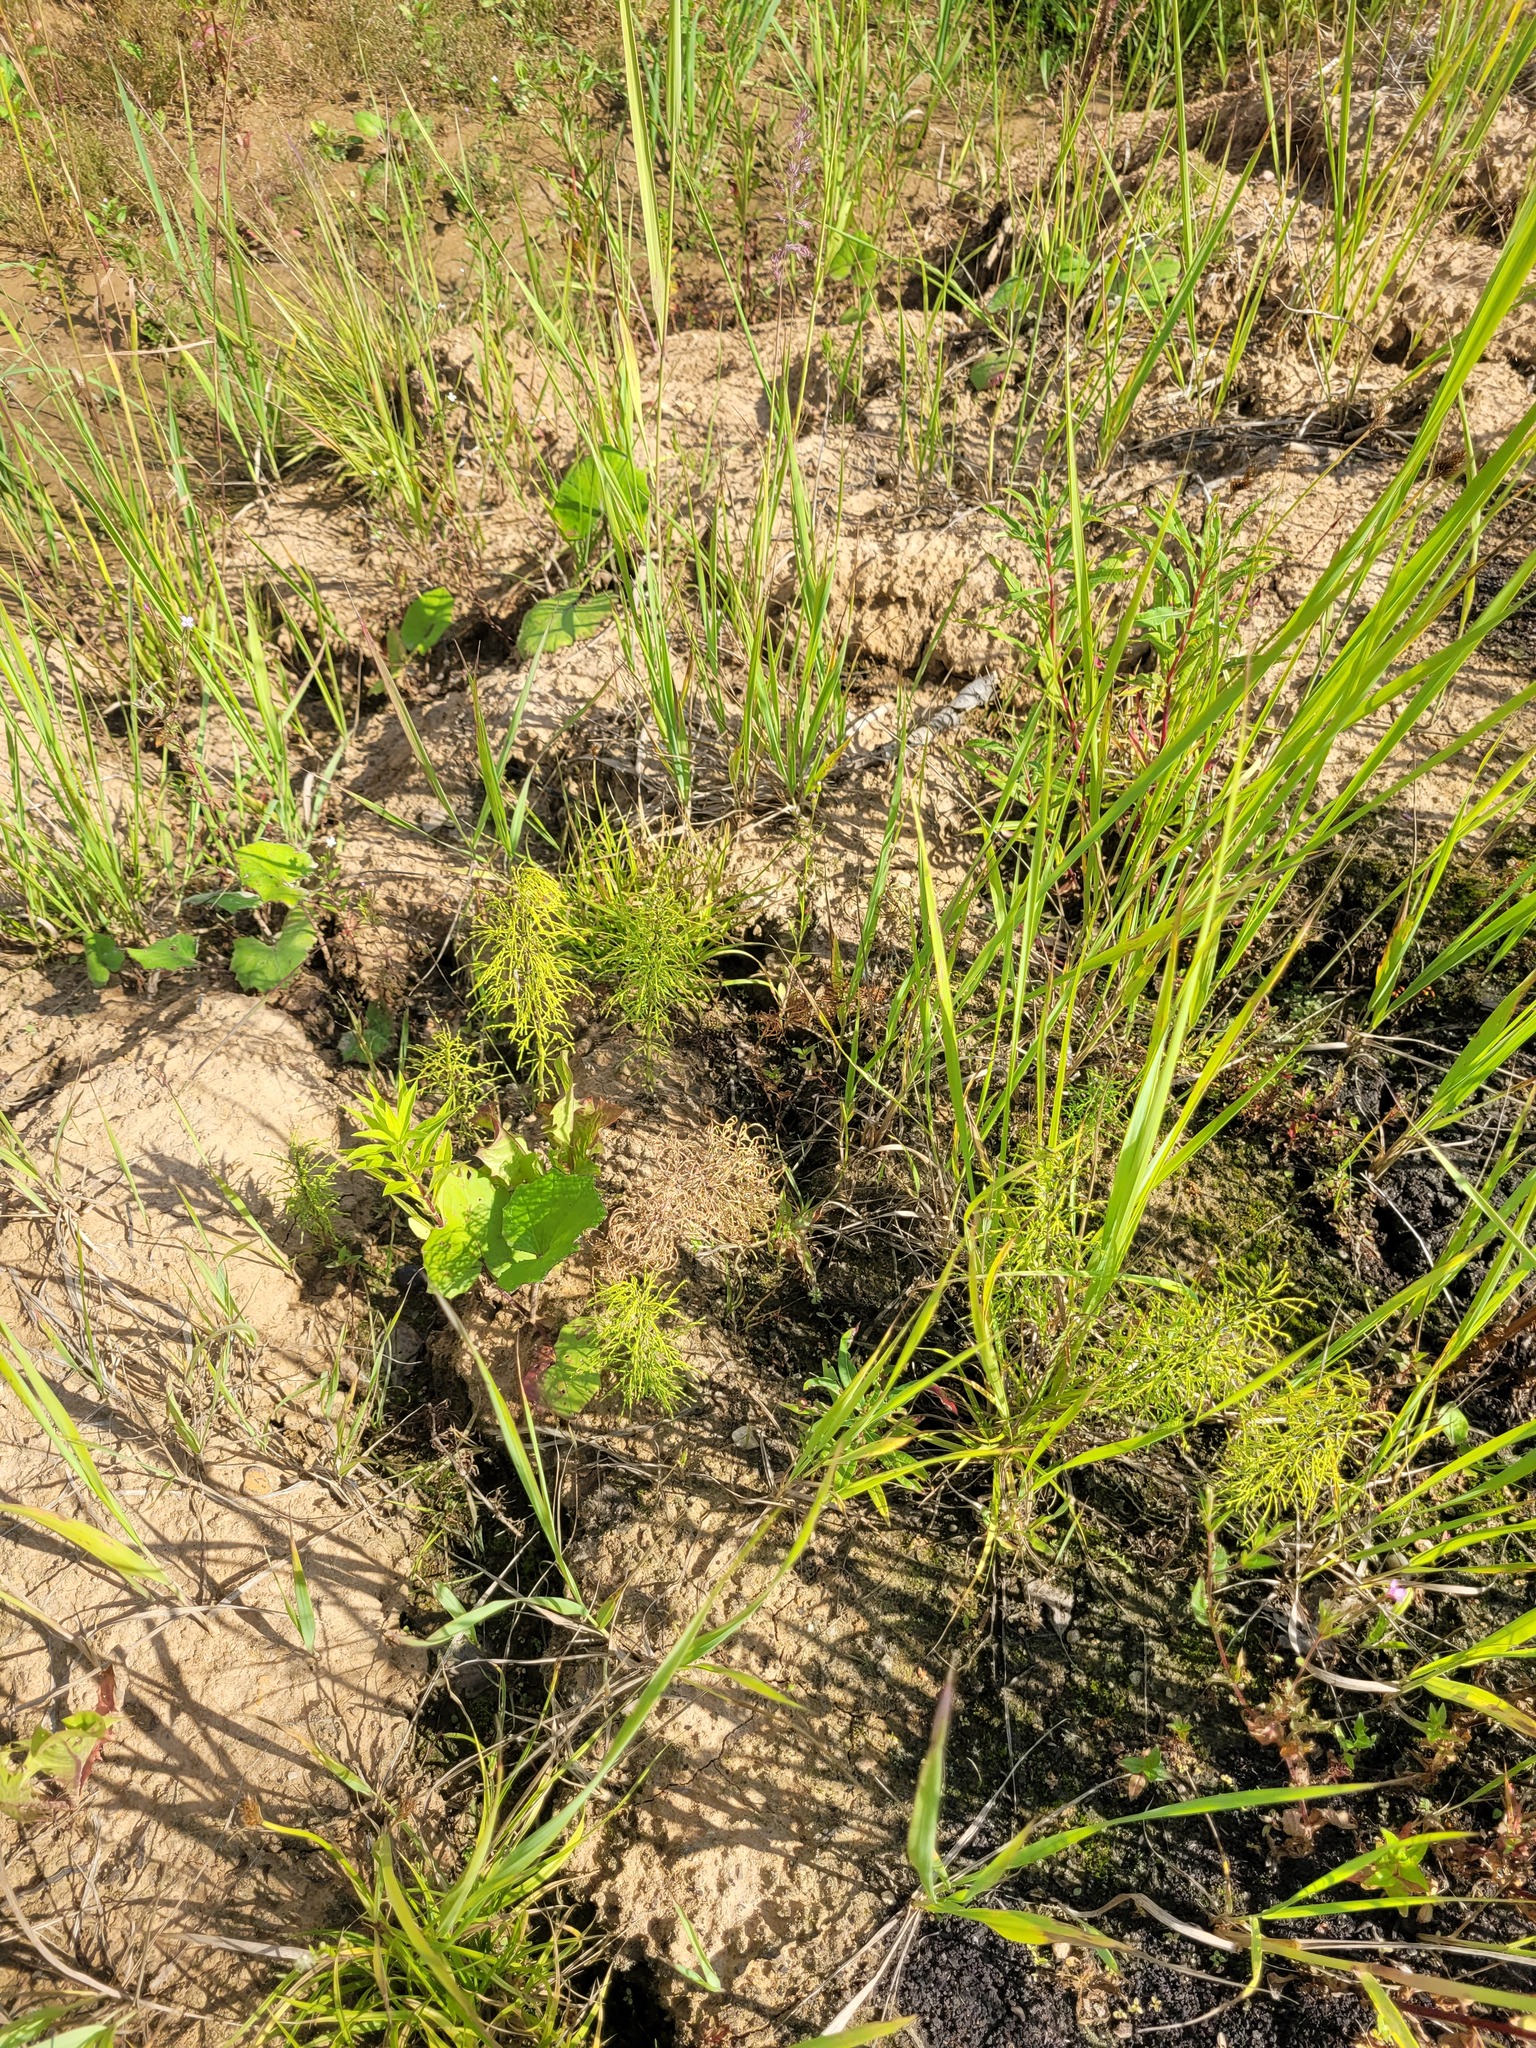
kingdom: Plantae
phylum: Tracheophyta
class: Polypodiopsida
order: Equisetales
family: Equisetaceae
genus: Equisetum
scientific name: Equisetum sylvaticum
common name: Wood horsetail
